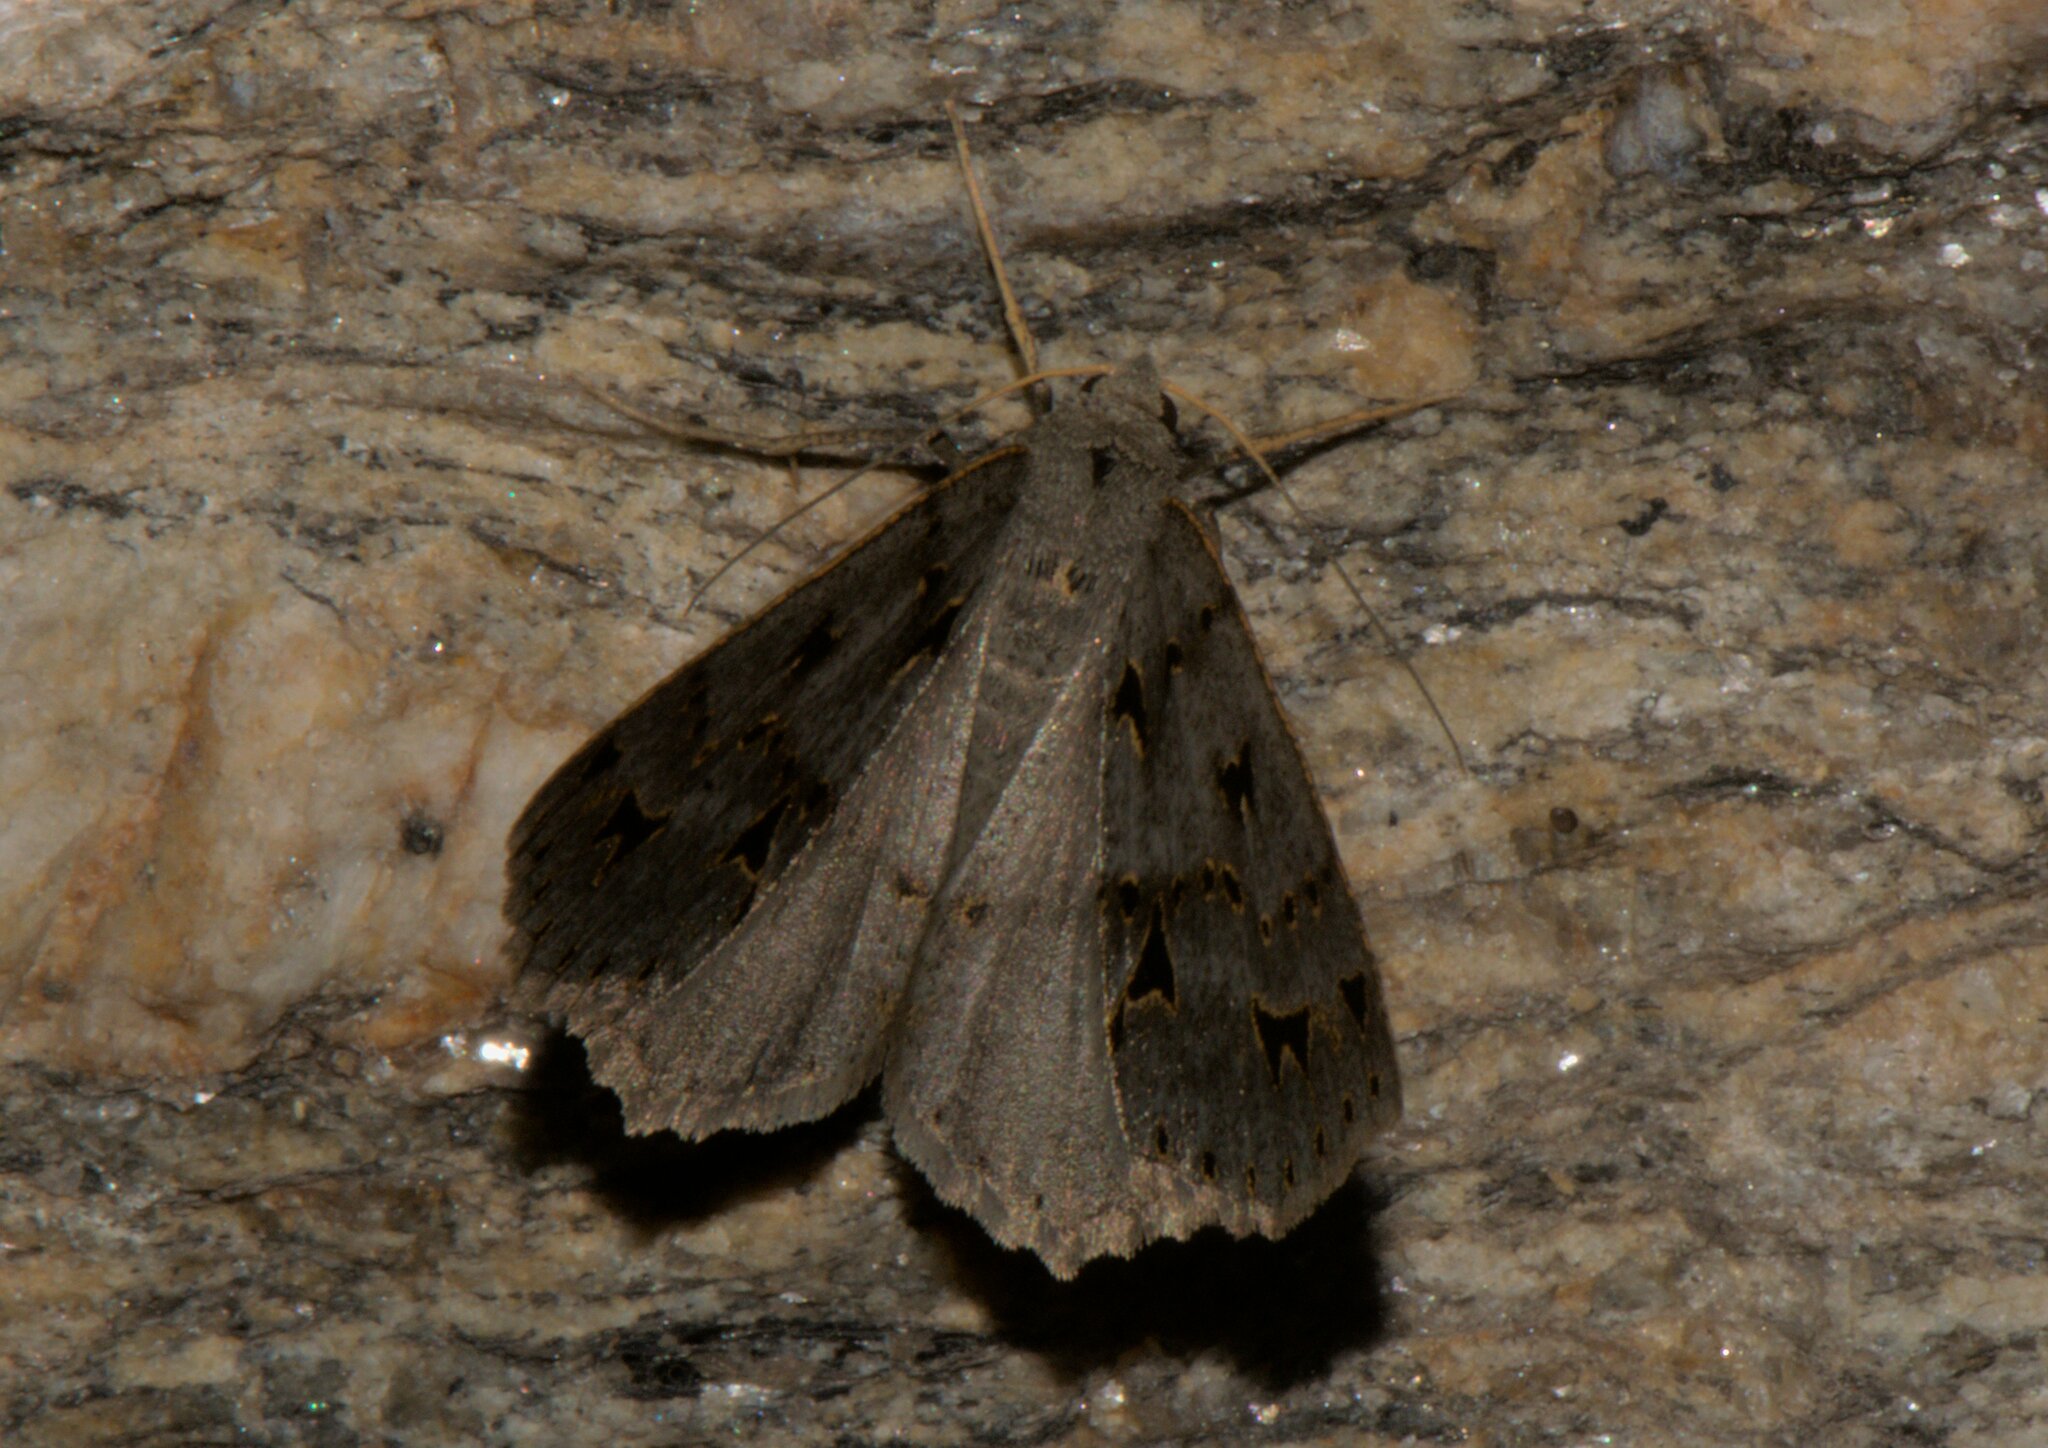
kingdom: Animalia
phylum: Arthropoda
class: Insecta
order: Lepidoptera
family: Geometridae
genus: Psyra
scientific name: Psyra angulifera
